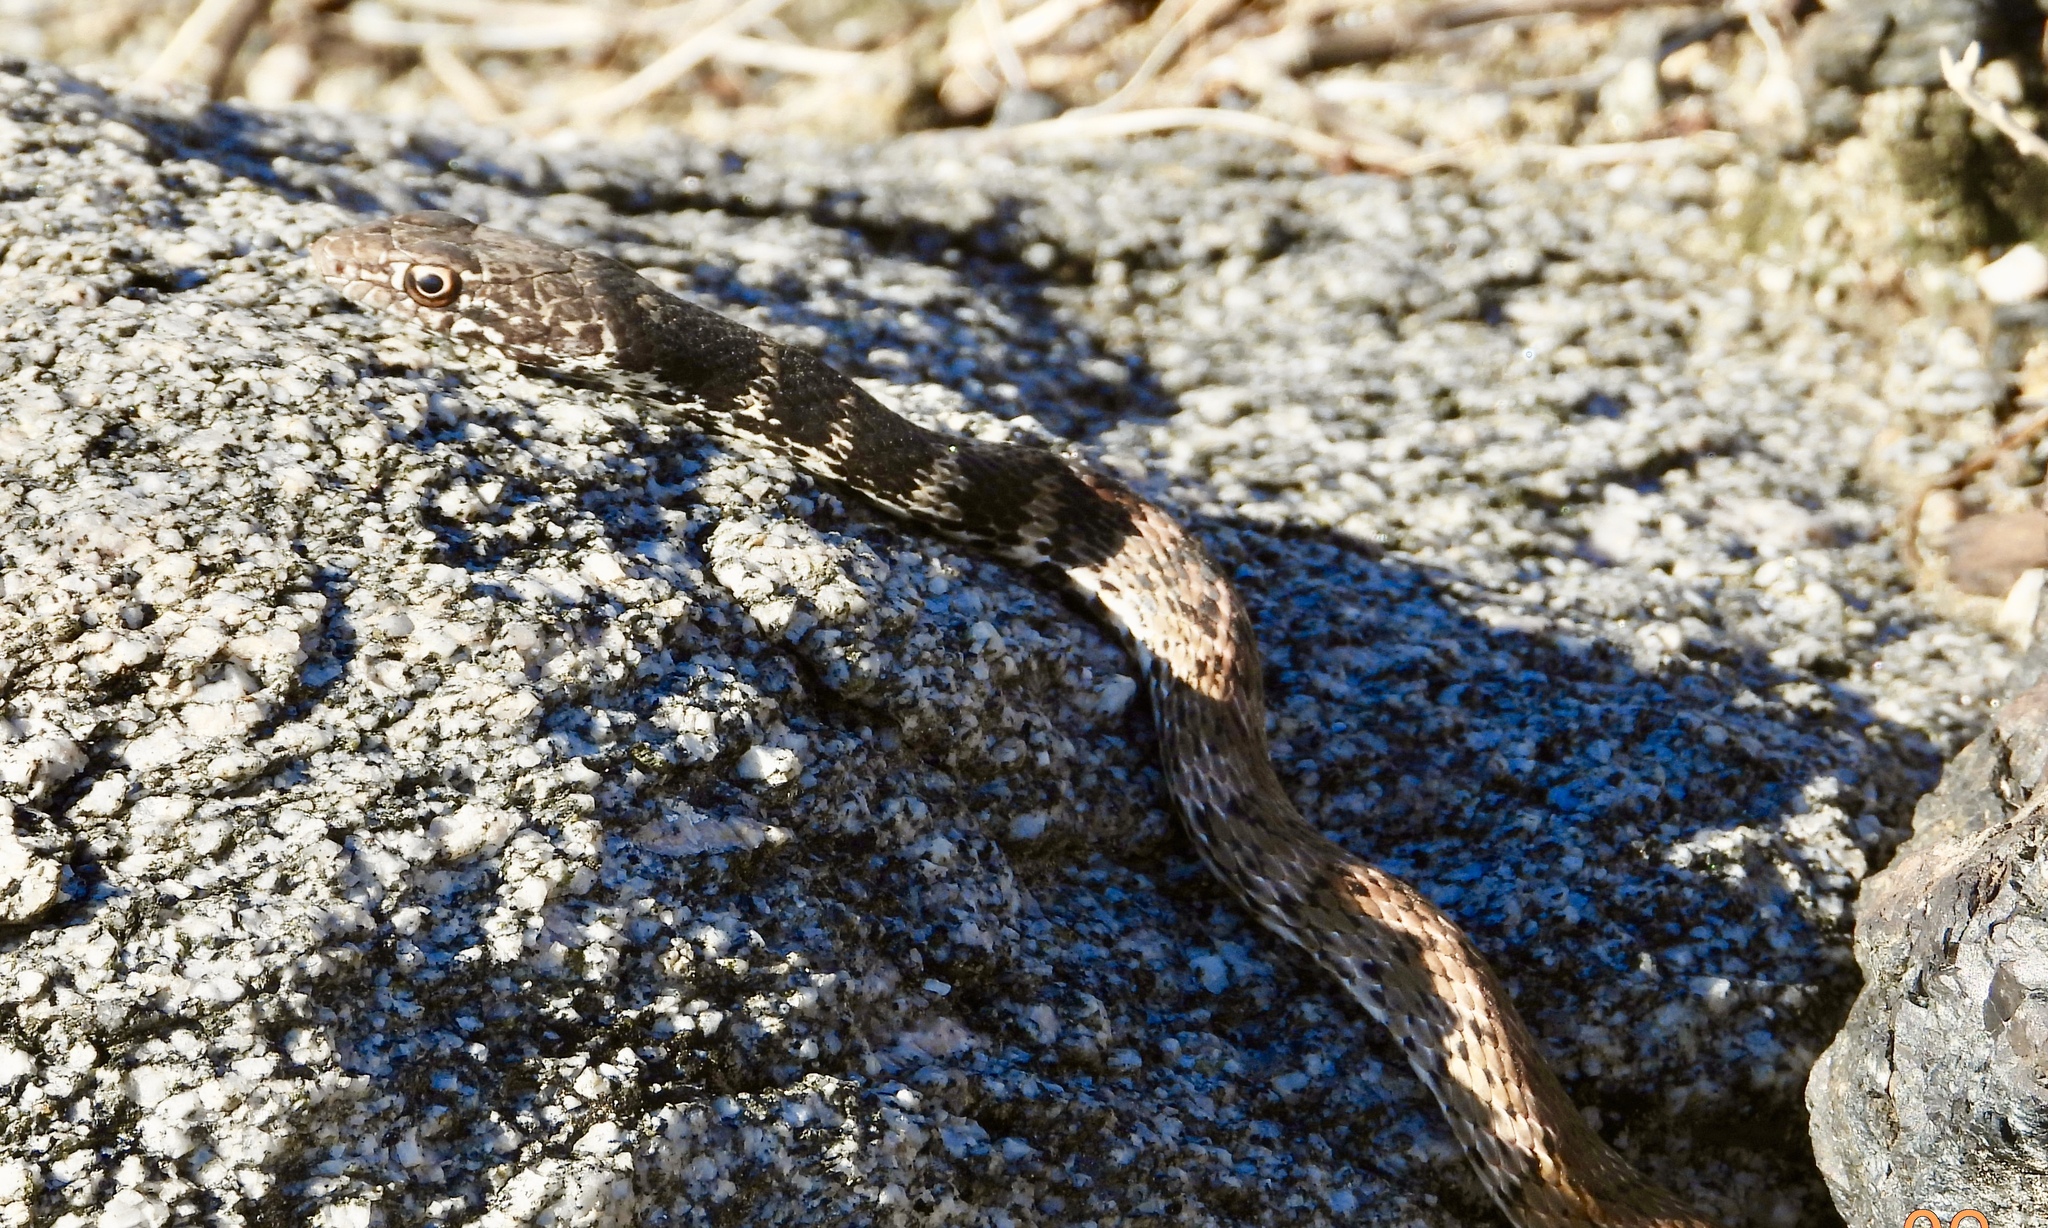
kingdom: Animalia
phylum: Chordata
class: Squamata
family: Colubridae
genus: Masticophis
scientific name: Masticophis flagellum
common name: Coachwhip
